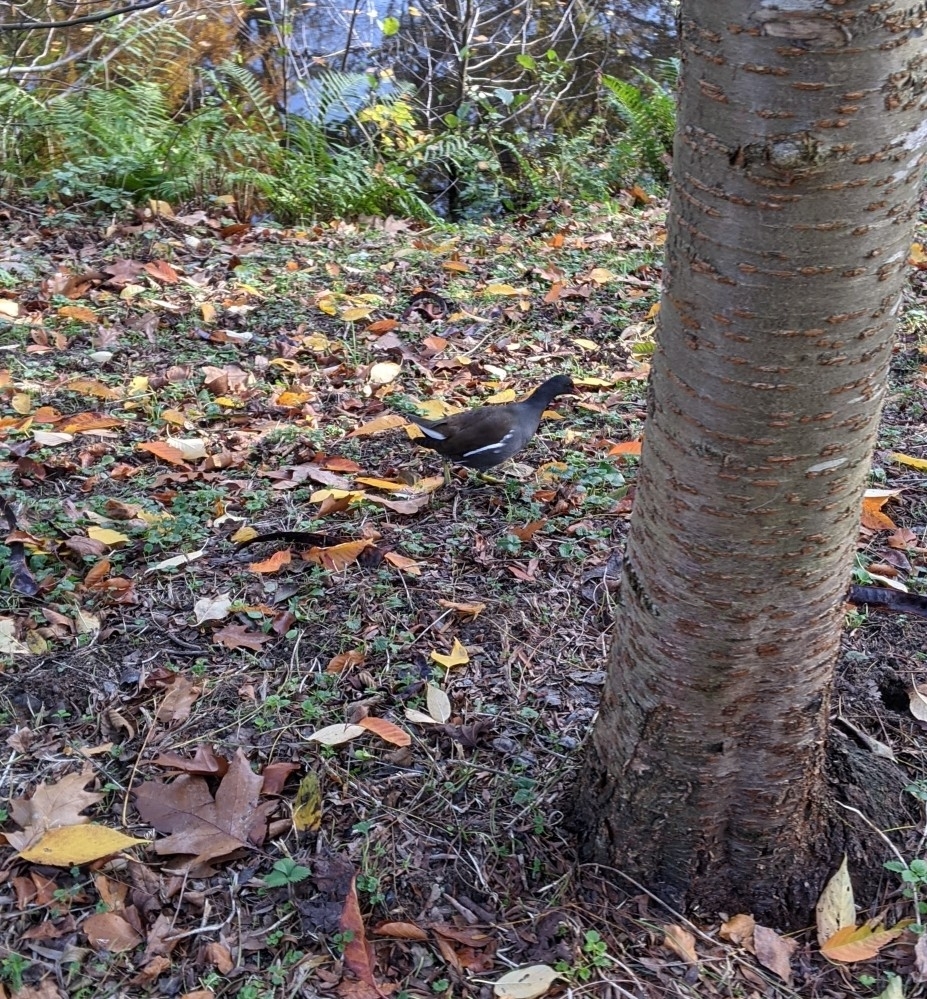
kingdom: Animalia
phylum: Chordata
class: Aves
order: Gruiformes
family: Rallidae
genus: Gallinula
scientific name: Gallinula chloropus
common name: Common moorhen
